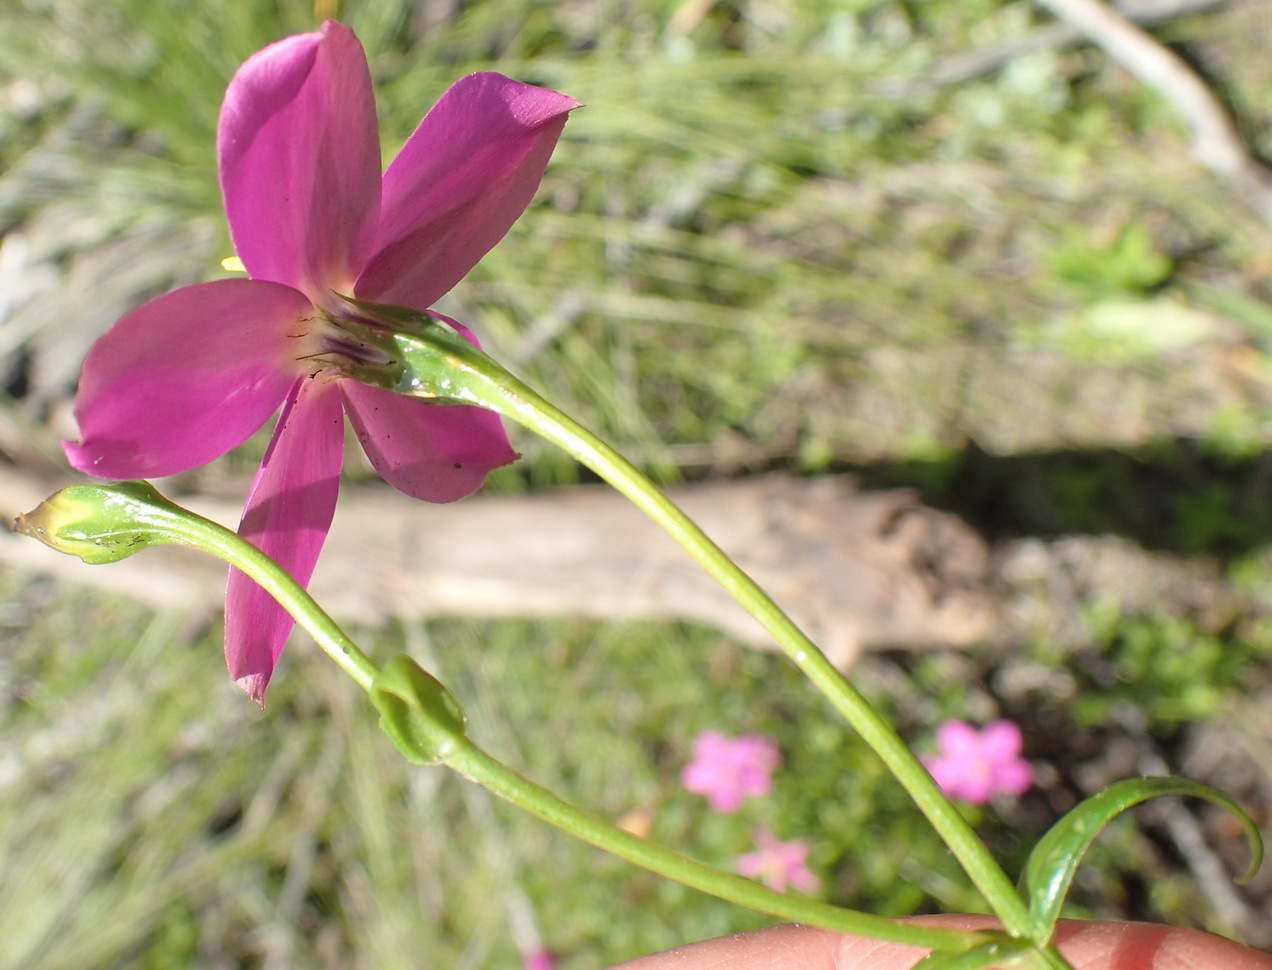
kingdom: Plantae
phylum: Tracheophyta
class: Magnoliopsida
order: Gentianales
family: Gentianaceae
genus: Chironia
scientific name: Chironia tetragona
